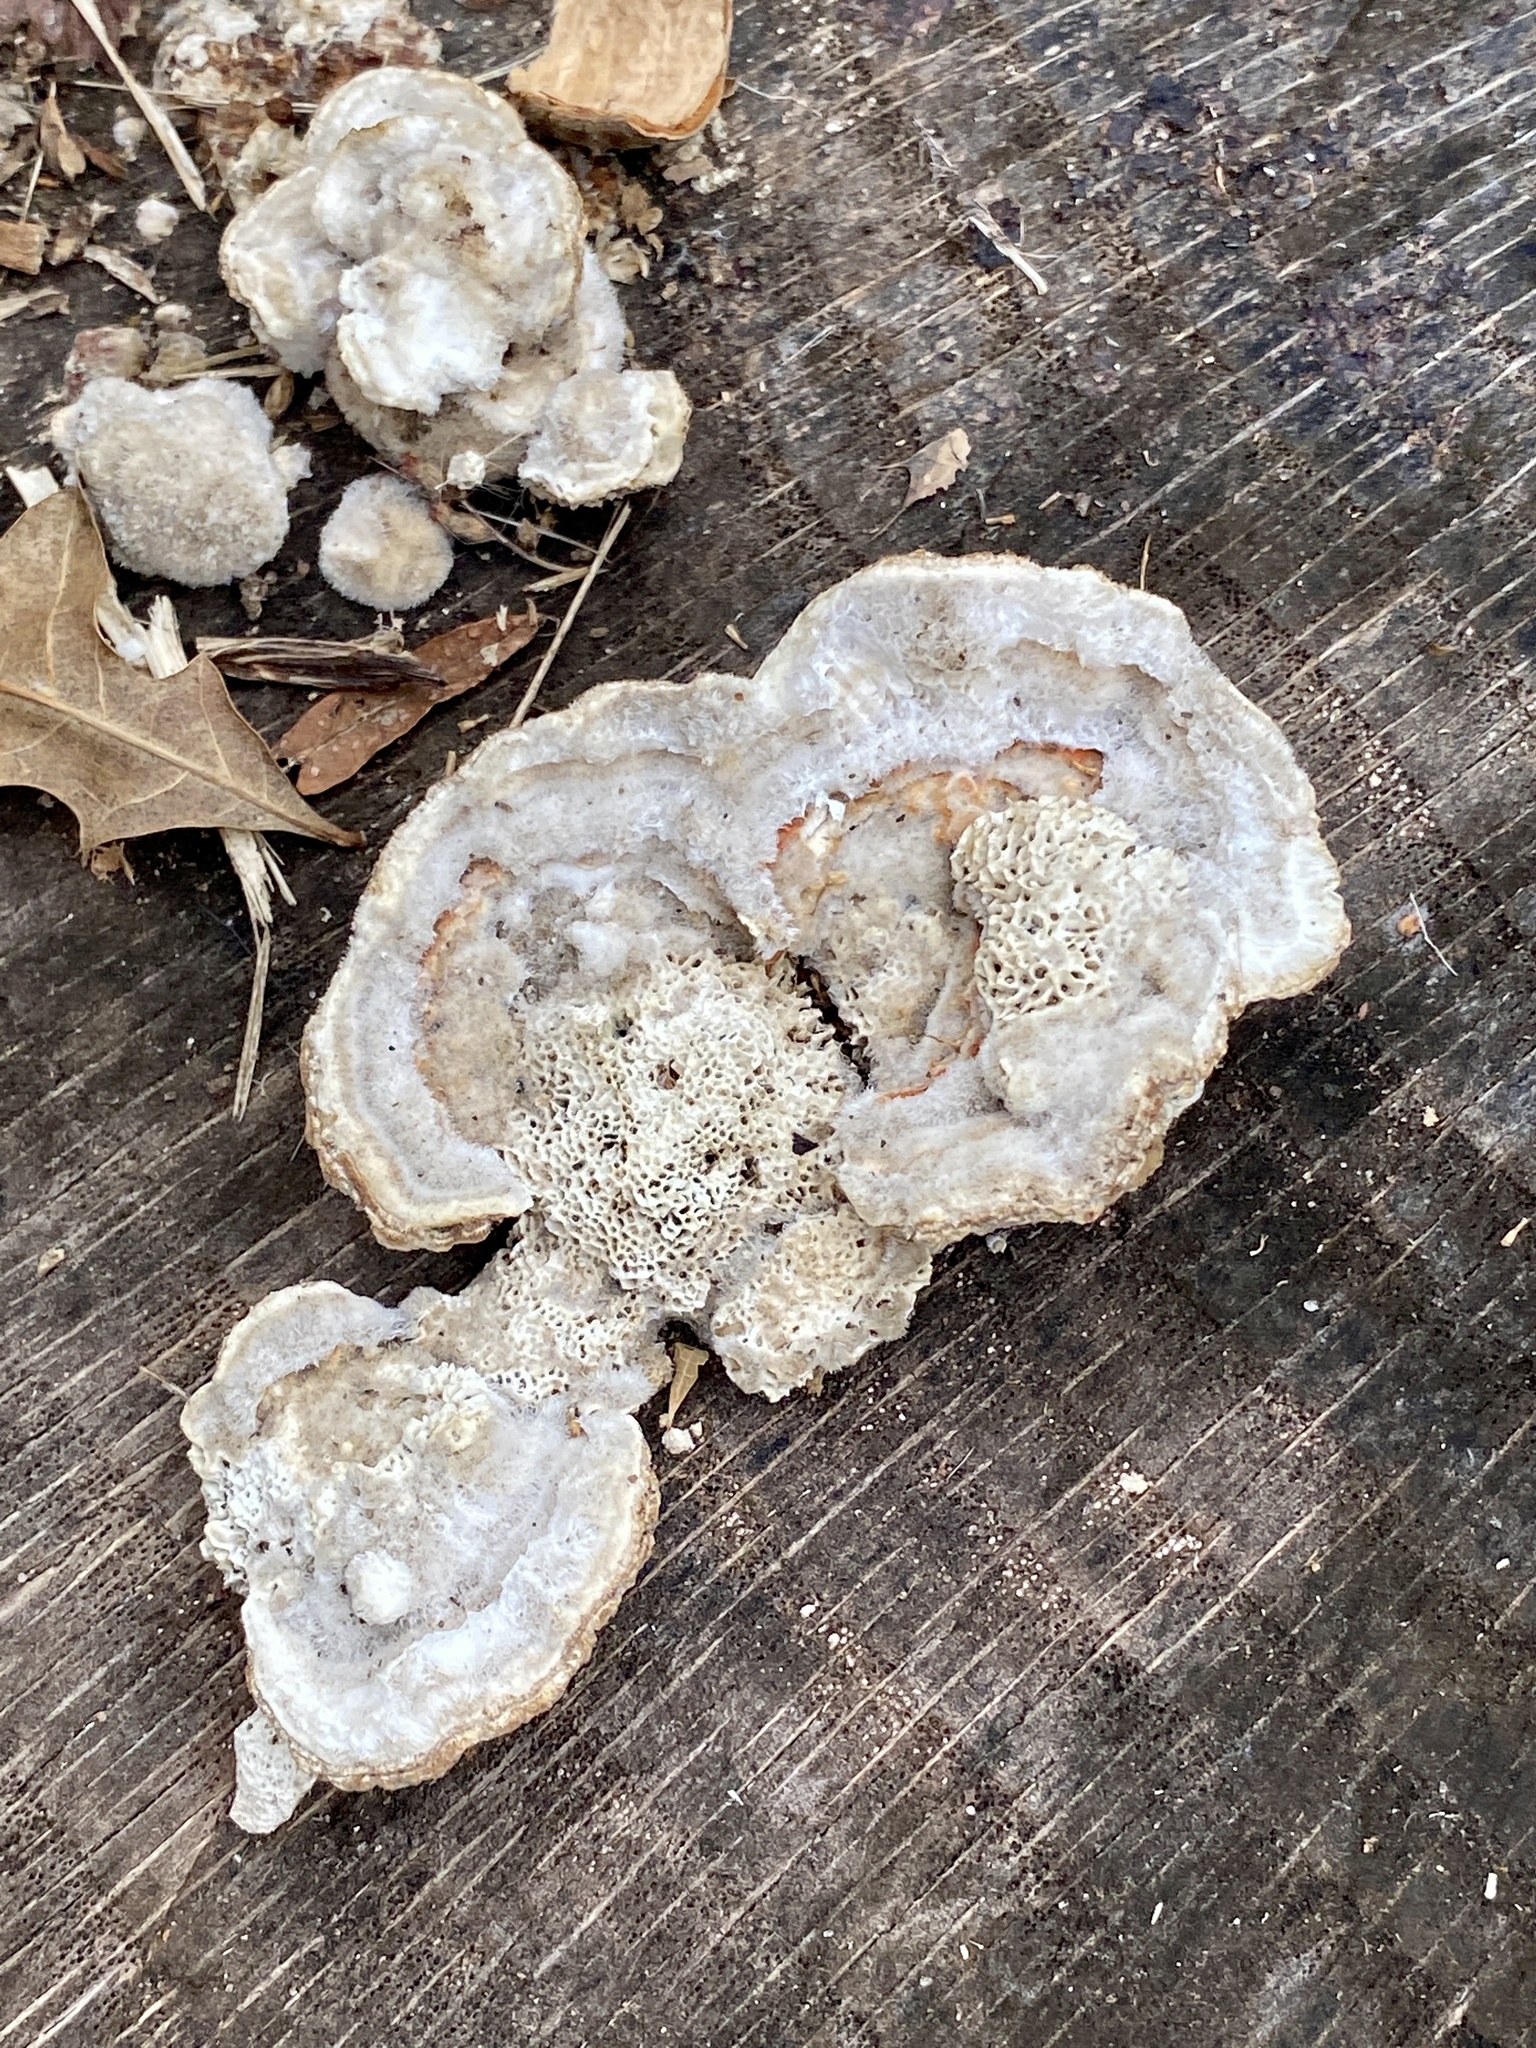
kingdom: Fungi
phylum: Basidiomycota
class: Agaricomycetes
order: Polyporales
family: Polyporaceae
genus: Lenzites
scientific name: Lenzites betulinus
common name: Birch mazegill
